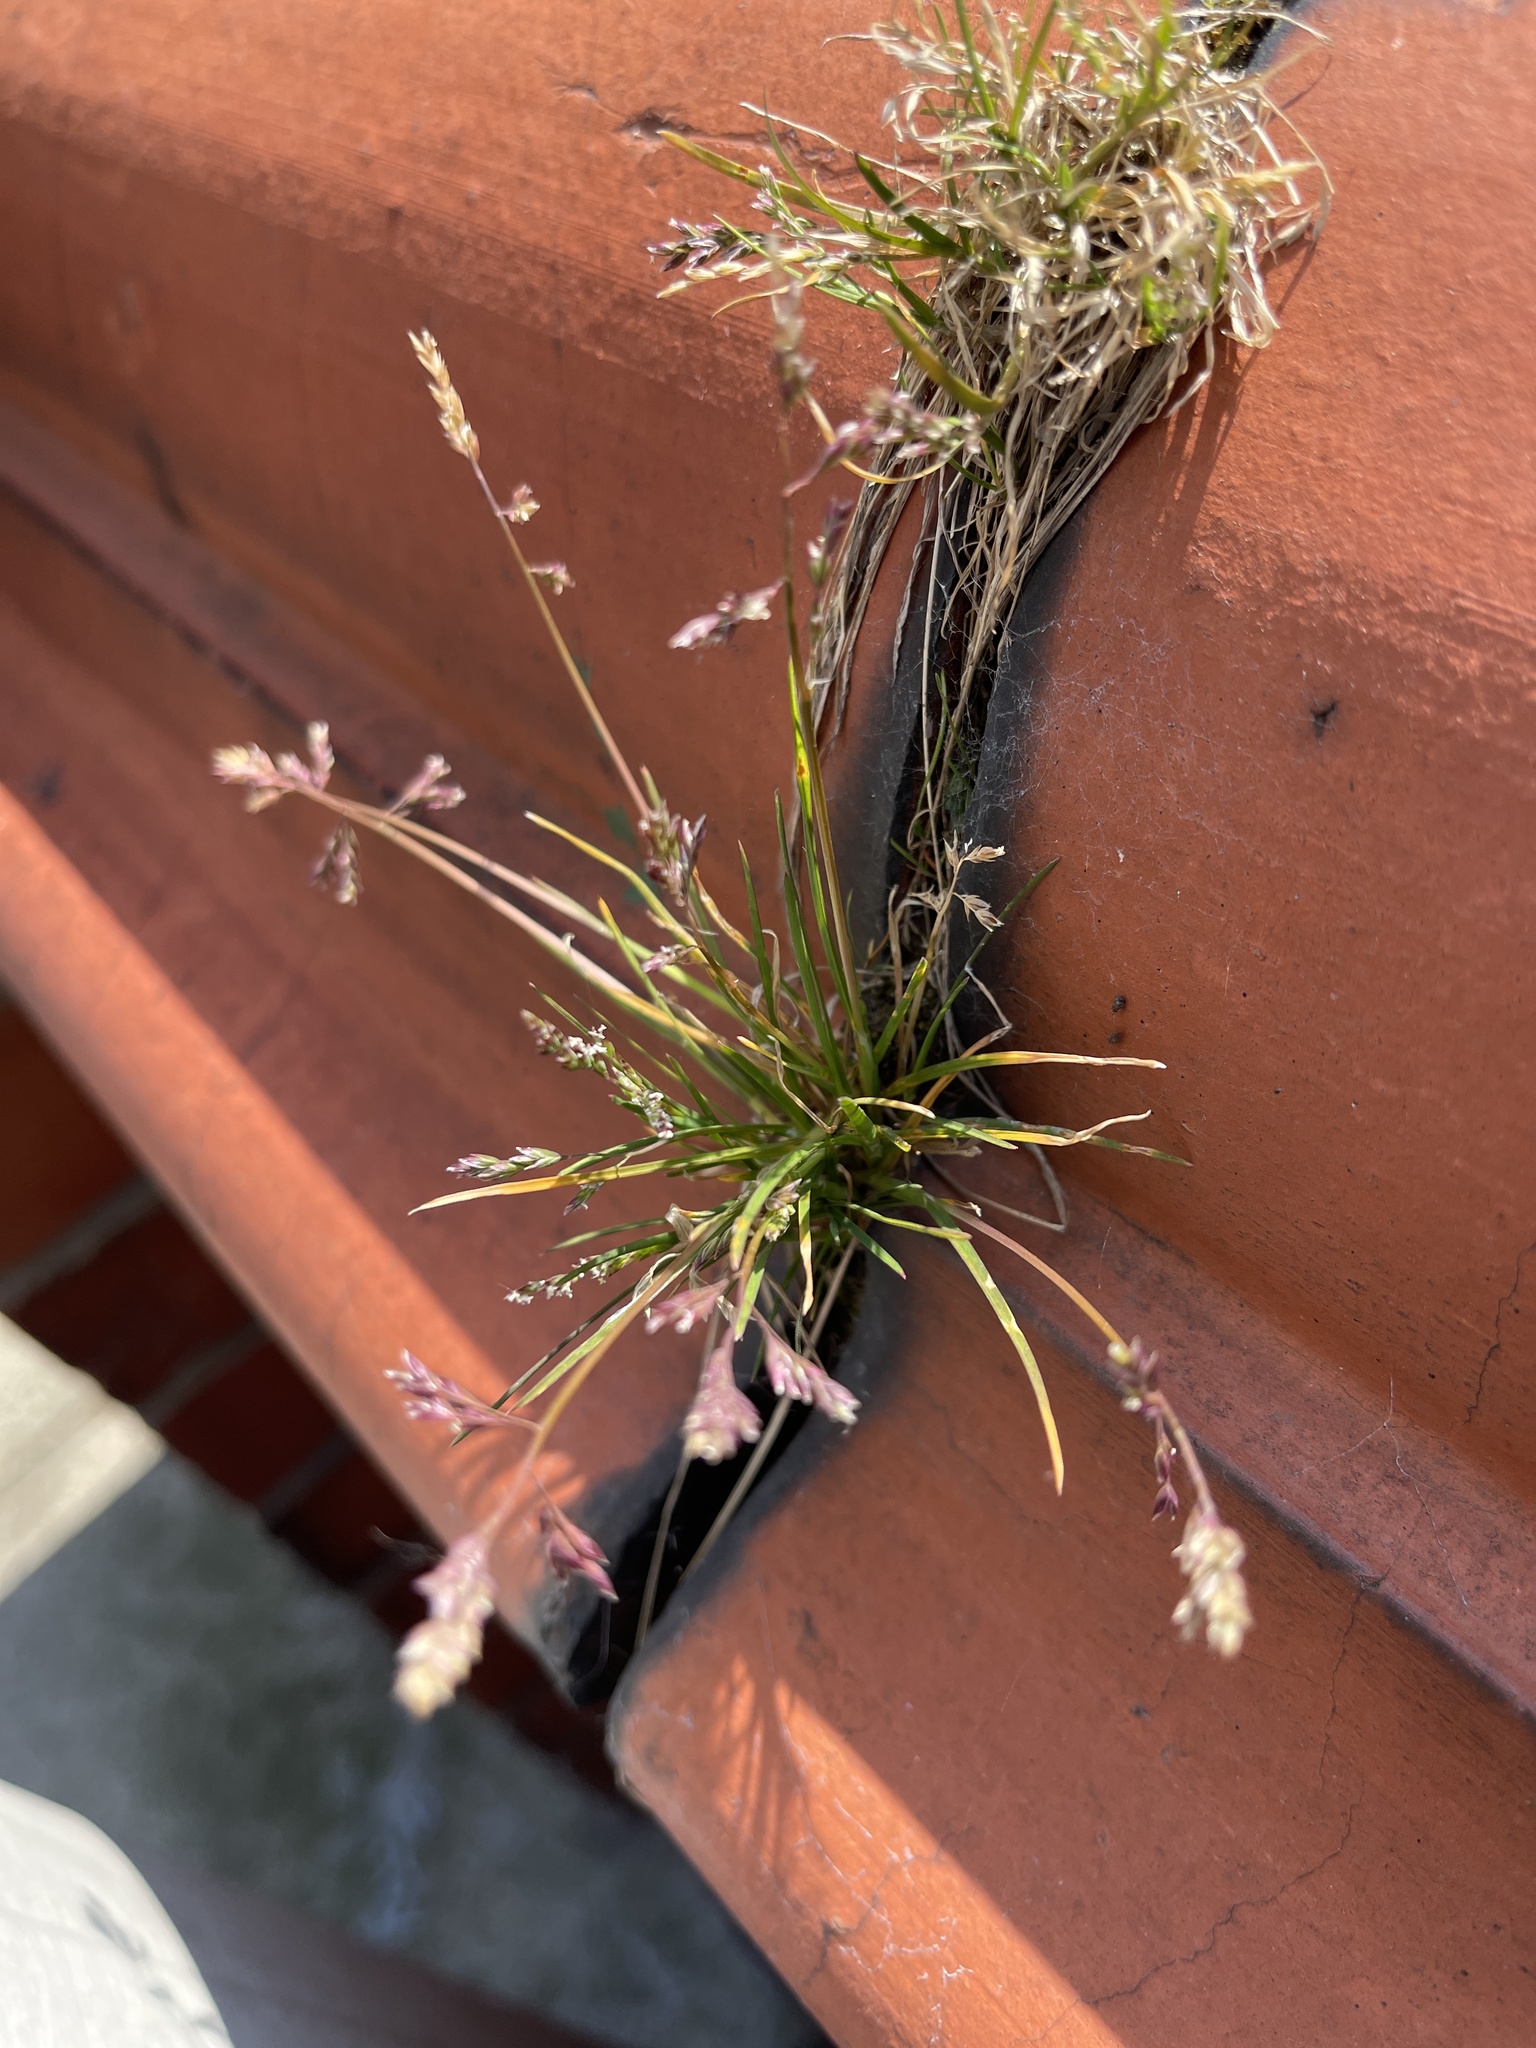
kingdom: Plantae
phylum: Tracheophyta
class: Liliopsida
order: Poales
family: Poaceae
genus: Poa
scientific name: Poa annua
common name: Annual bluegrass
